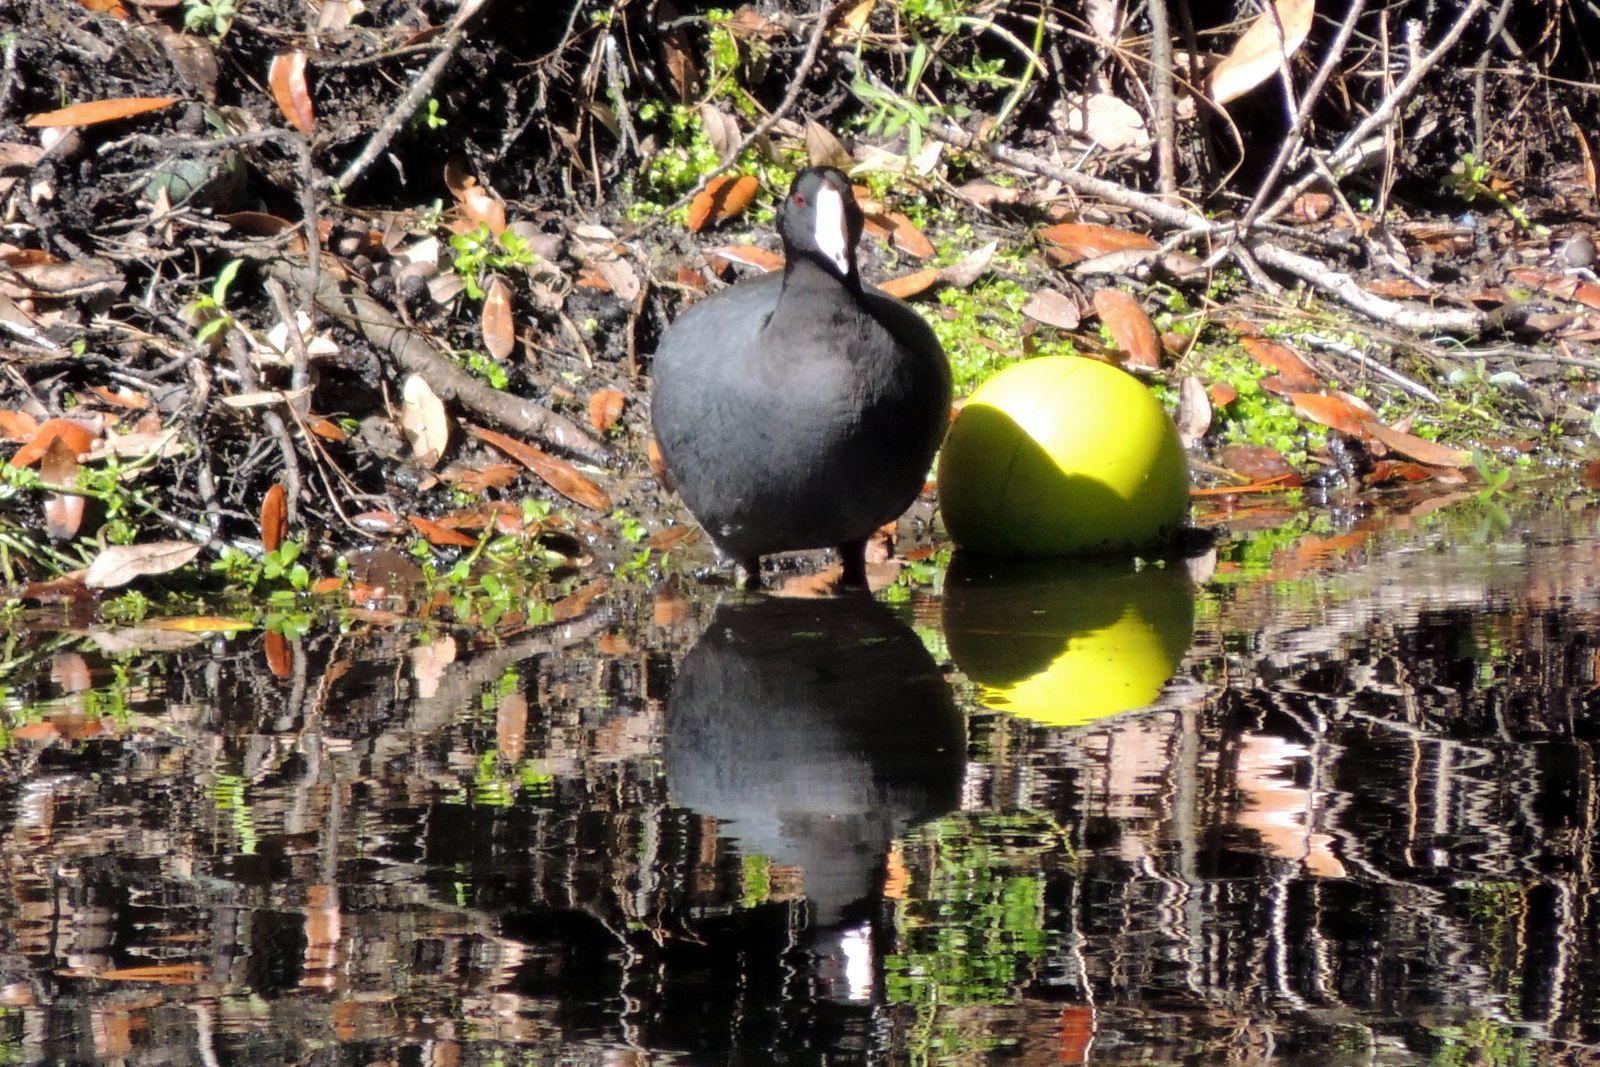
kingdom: Animalia
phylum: Chordata
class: Aves
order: Gruiformes
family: Rallidae
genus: Fulica
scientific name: Fulica americana
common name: American coot
